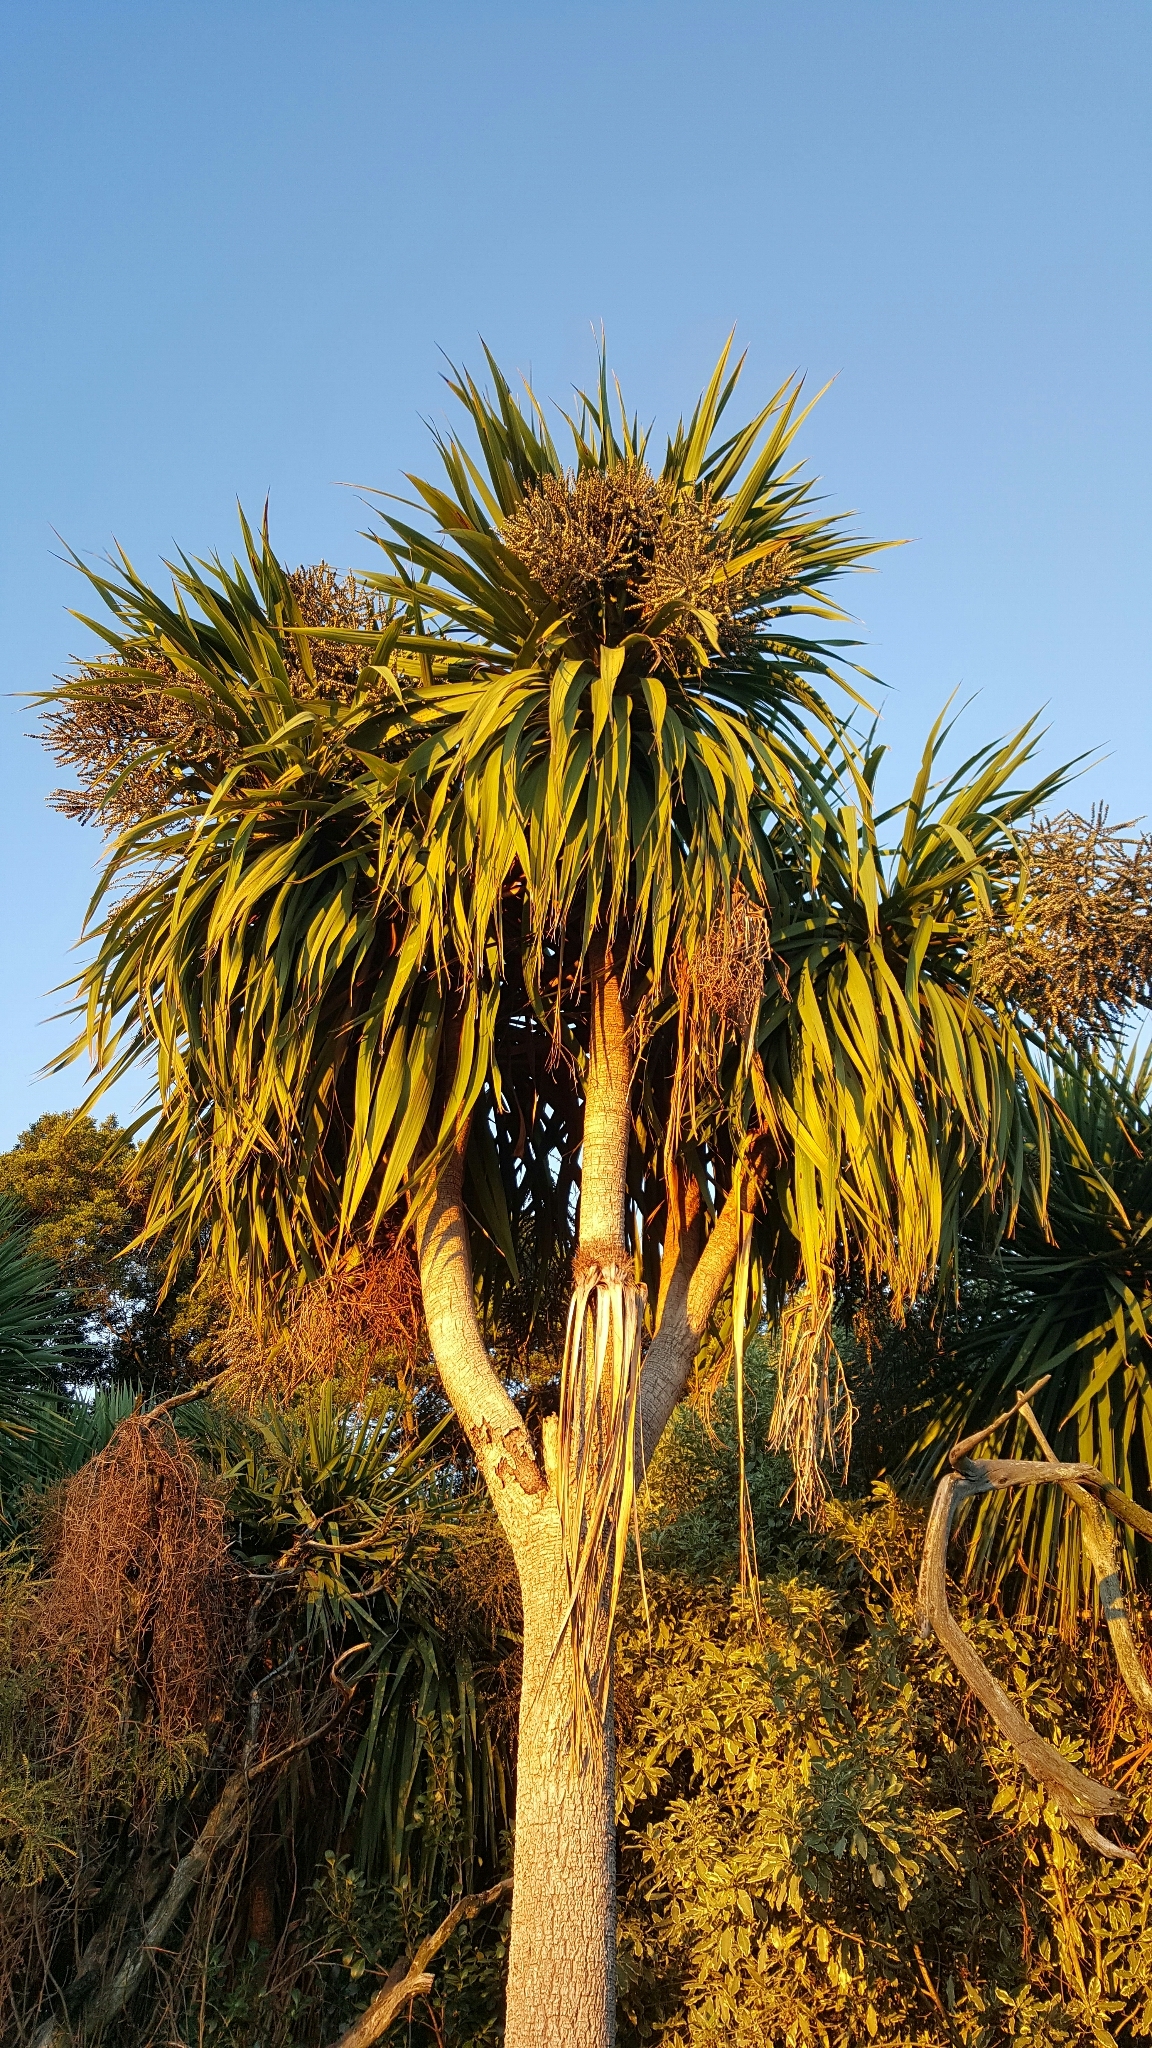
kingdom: Plantae
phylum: Tracheophyta
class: Liliopsida
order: Asparagales
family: Asparagaceae
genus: Cordyline
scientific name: Cordyline australis
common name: Cabbage-palm
